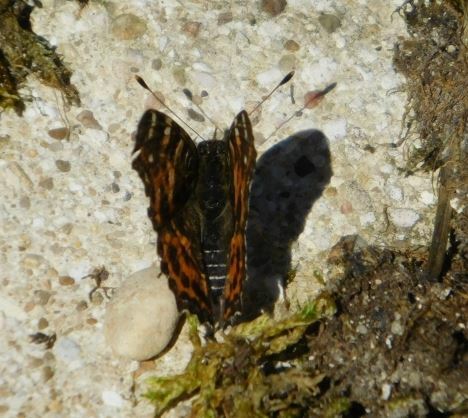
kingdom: Animalia
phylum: Arthropoda
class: Insecta
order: Lepidoptera
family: Nymphalidae
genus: Araschnia
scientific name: Araschnia levana
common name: Map butterfly
